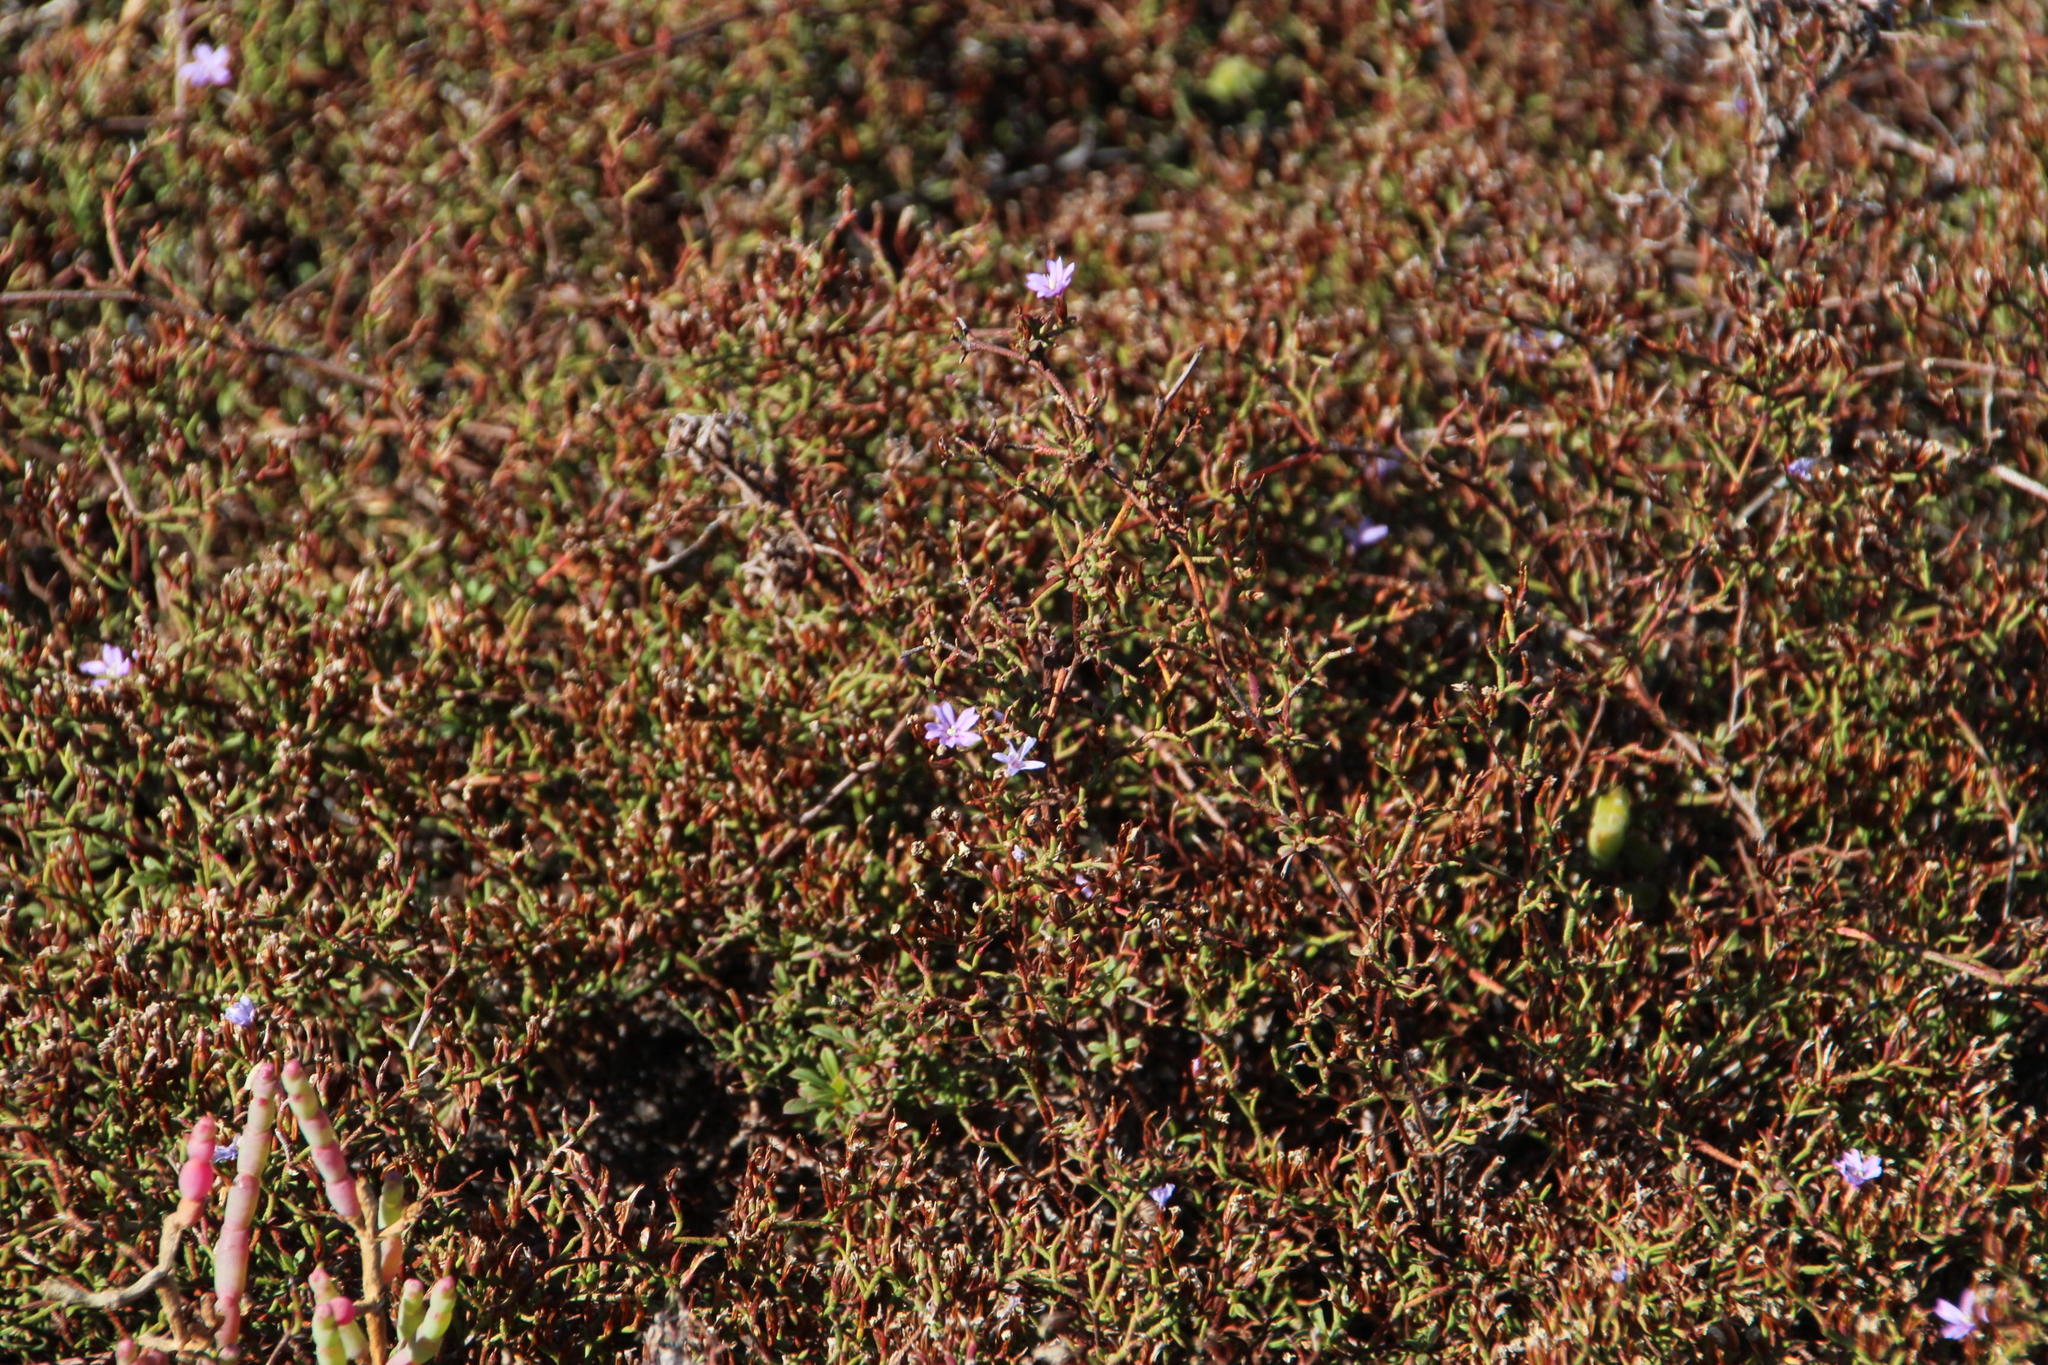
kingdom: Plantae
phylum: Tracheophyta
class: Magnoliopsida
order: Caryophyllales
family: Plumbaginaceae
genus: Limonium
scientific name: Limonium equisetinum
